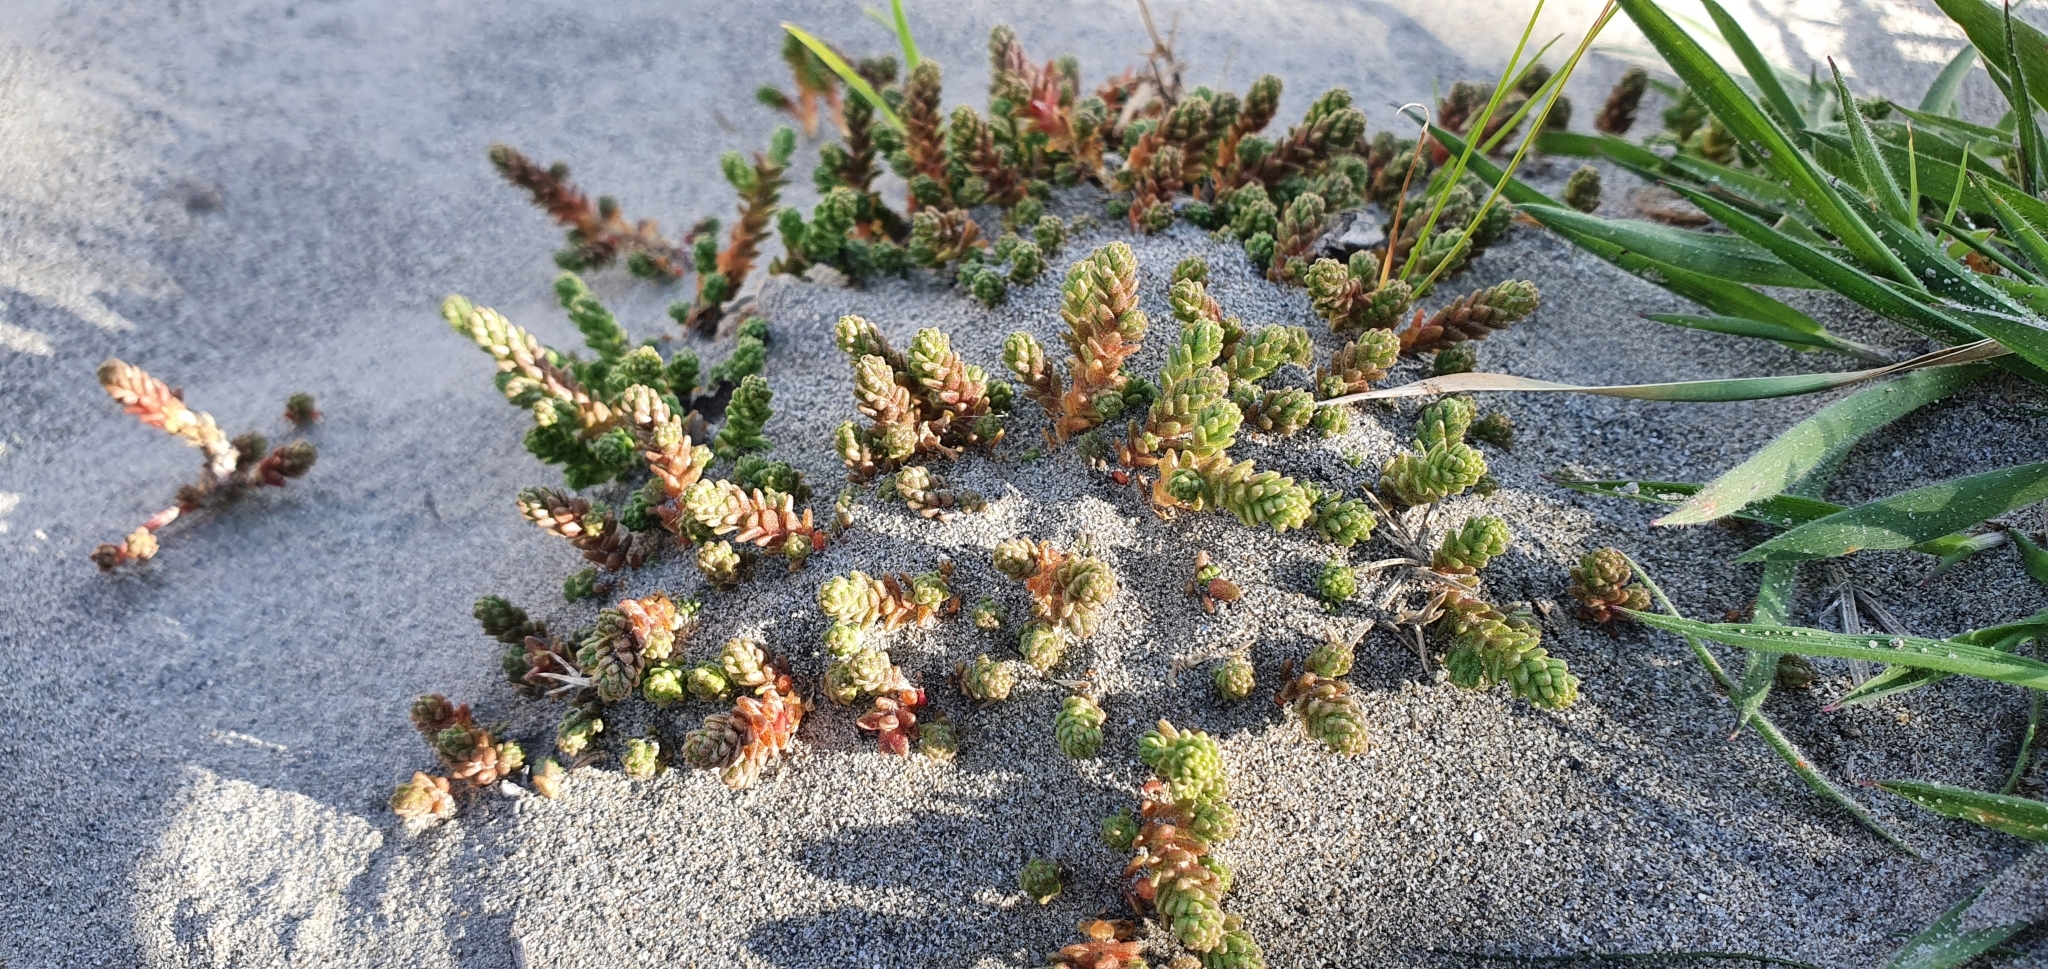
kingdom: Plantae
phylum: Tracheophyta
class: Magnoliopsida
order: Saxifragales
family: Crassulaceae
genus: Sedum
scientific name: Sedum acre
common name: Biting stonecrop
